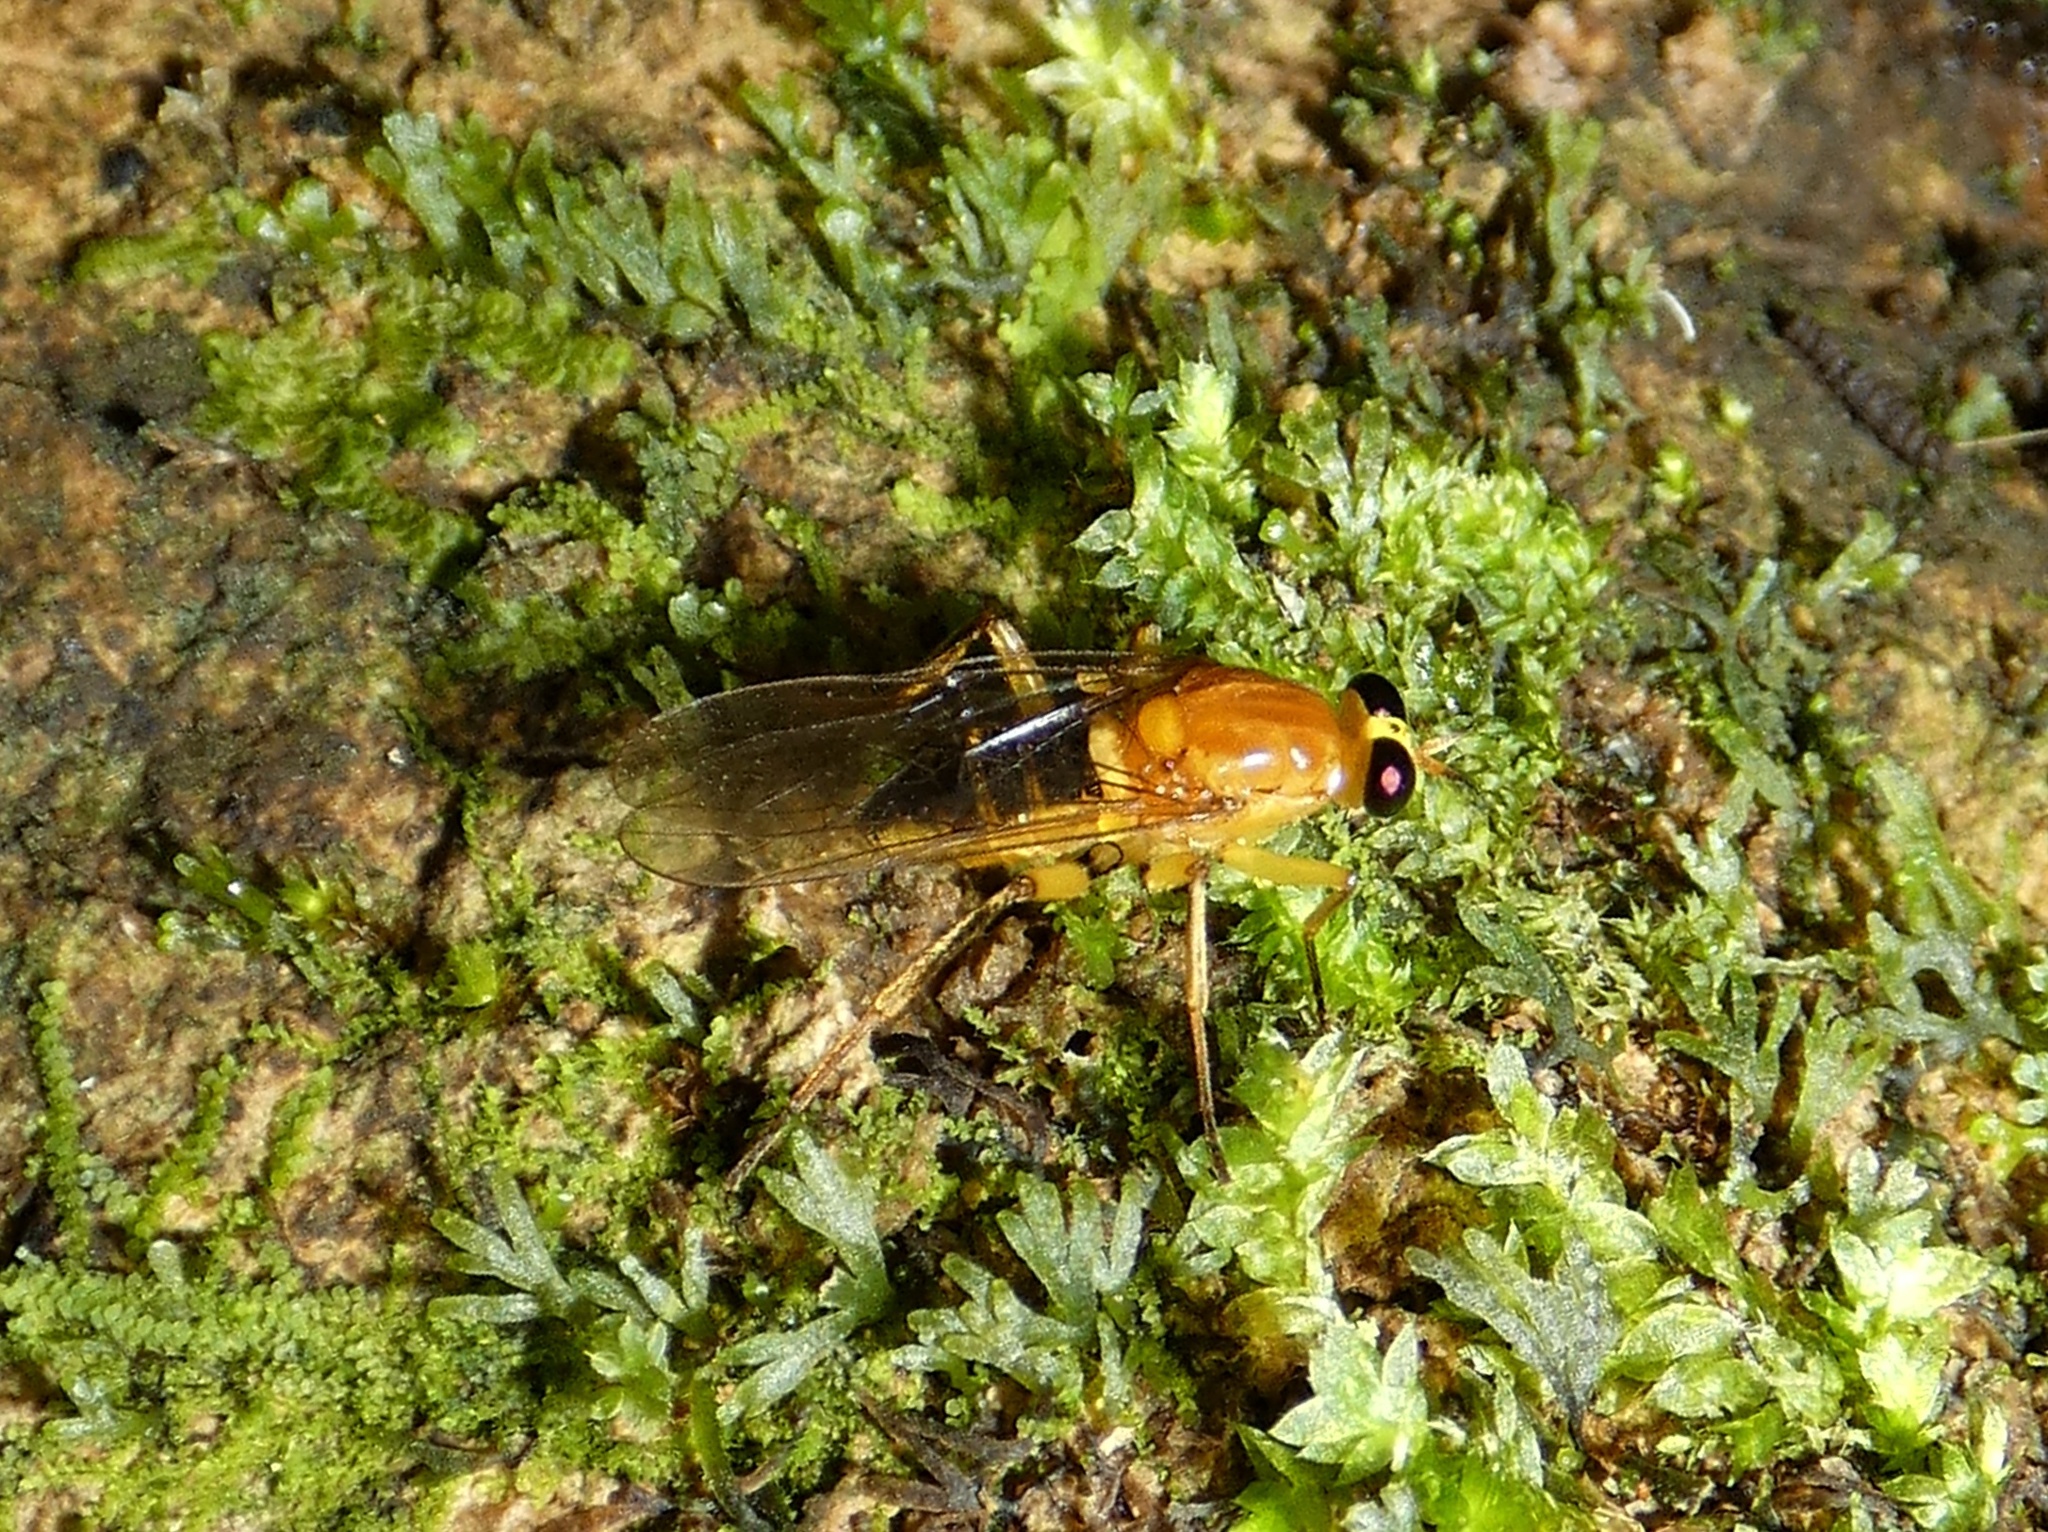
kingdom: Animalia
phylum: Arthropoda
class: Insecta
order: Diptera
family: Xylomyidae
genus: Arthropeina
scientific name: Arthropeina fulva
